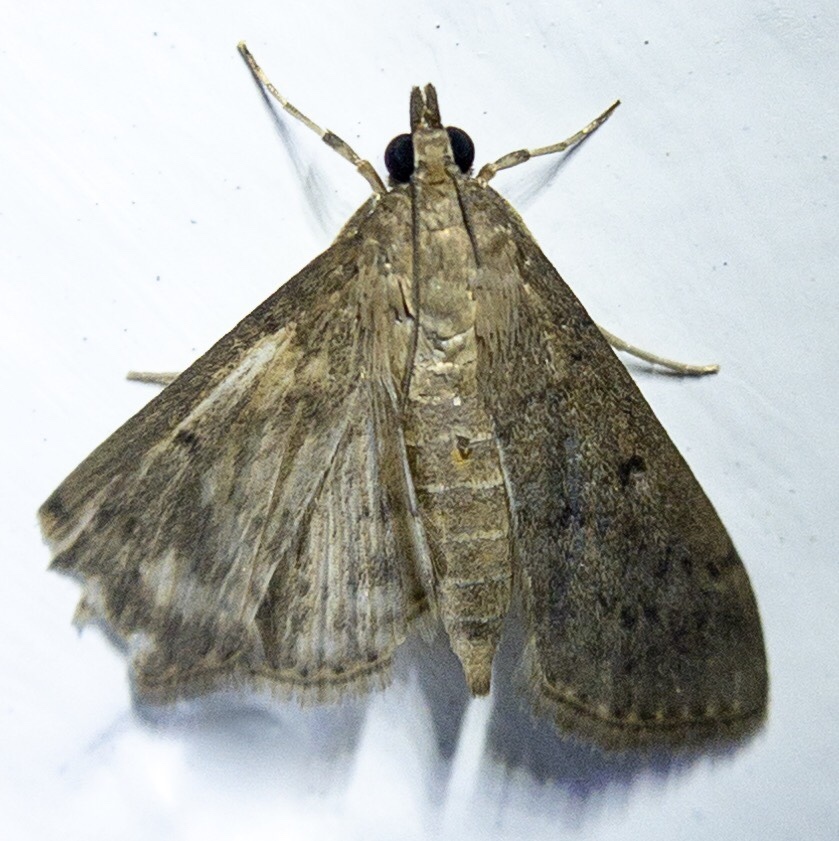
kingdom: Animalia
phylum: Arthropoda
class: Insecta
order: Lepidoptera
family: Crambidae
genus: Herpetogramma
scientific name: Herpetogramma licarsisalis
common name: Grass webworm
